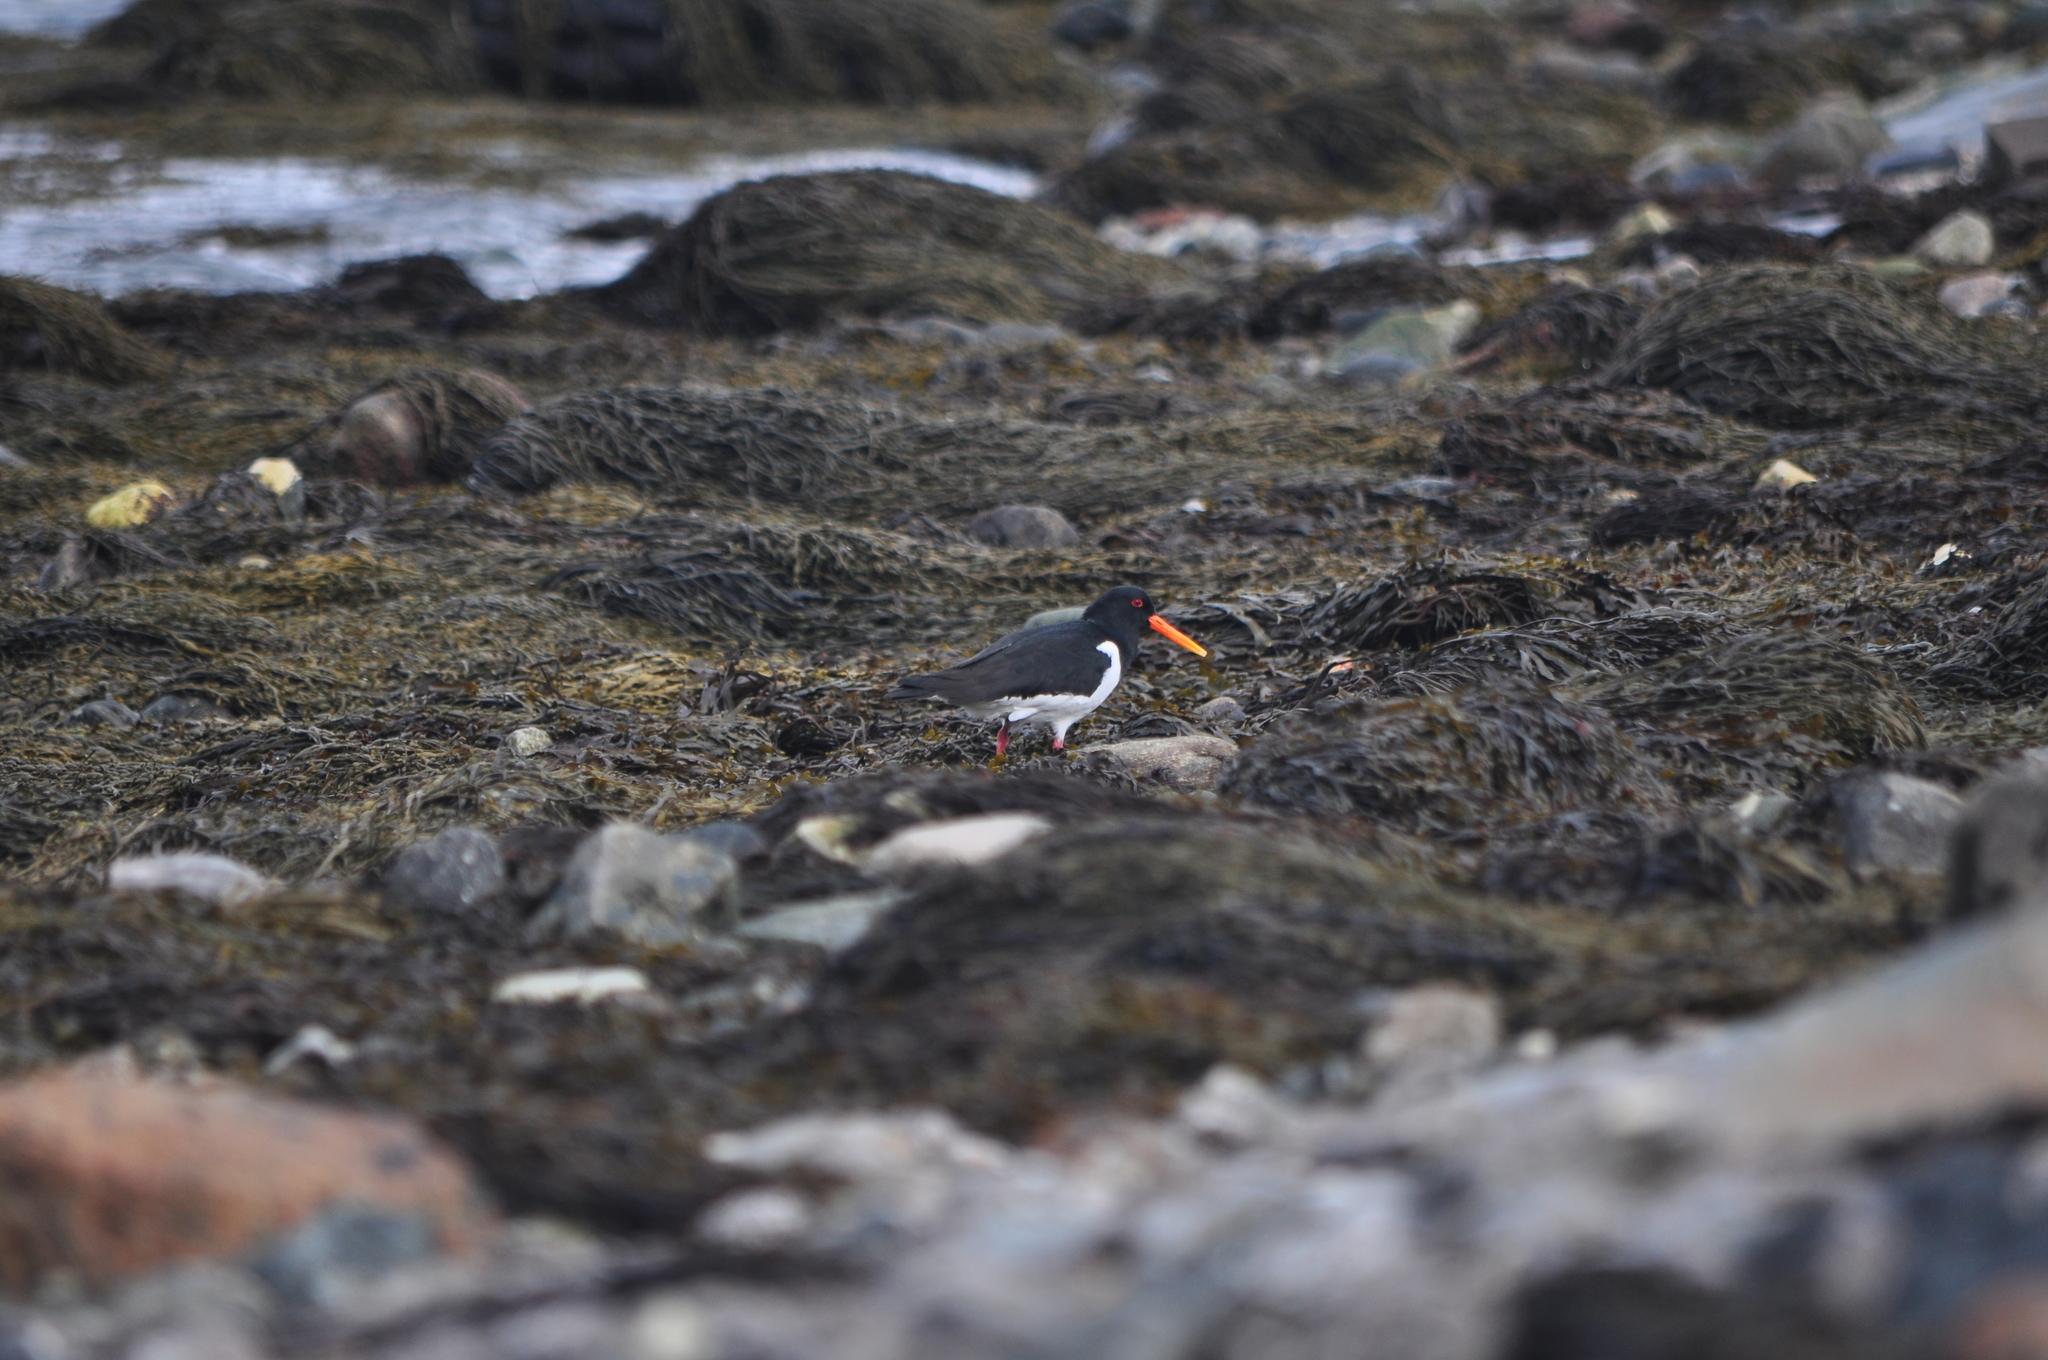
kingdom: Animalia
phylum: Chordata
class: Aves
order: Charadriiformes
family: Haematopodidae
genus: Haematopus
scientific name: Haematopus ostralegus
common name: Eurasian oystercatcher
